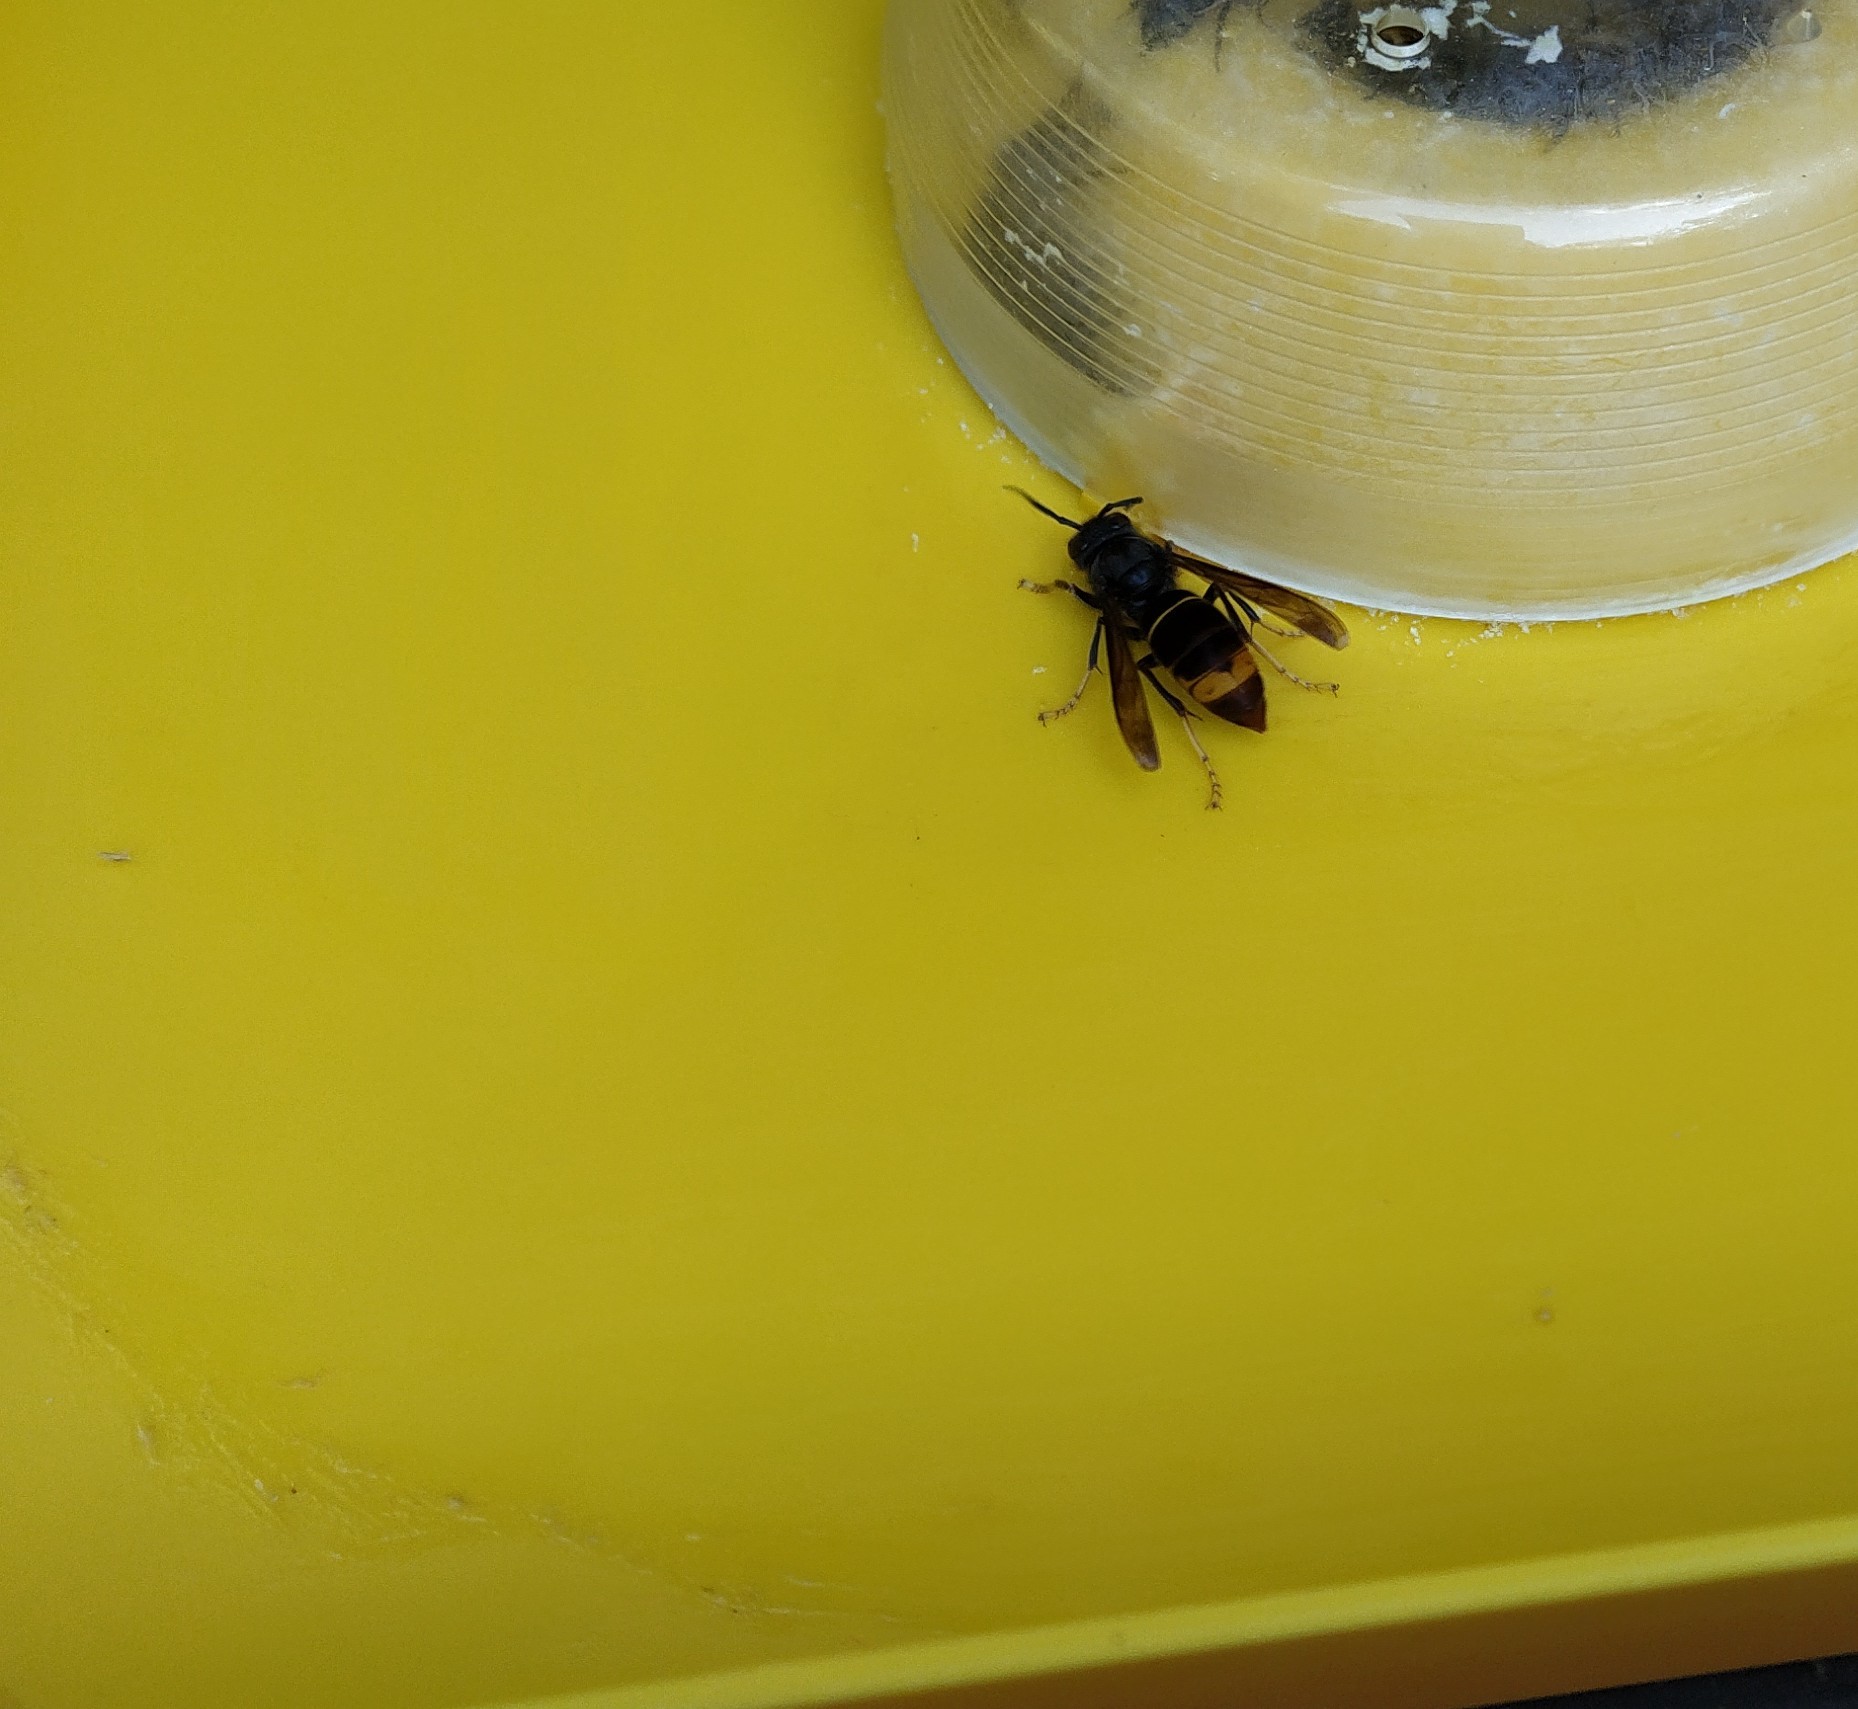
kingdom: Animalia
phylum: Arthropoda
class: Insecta
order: Hymenoptera
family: Vespidae
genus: Vespa
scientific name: Vespa velutina
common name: Asian hornet
